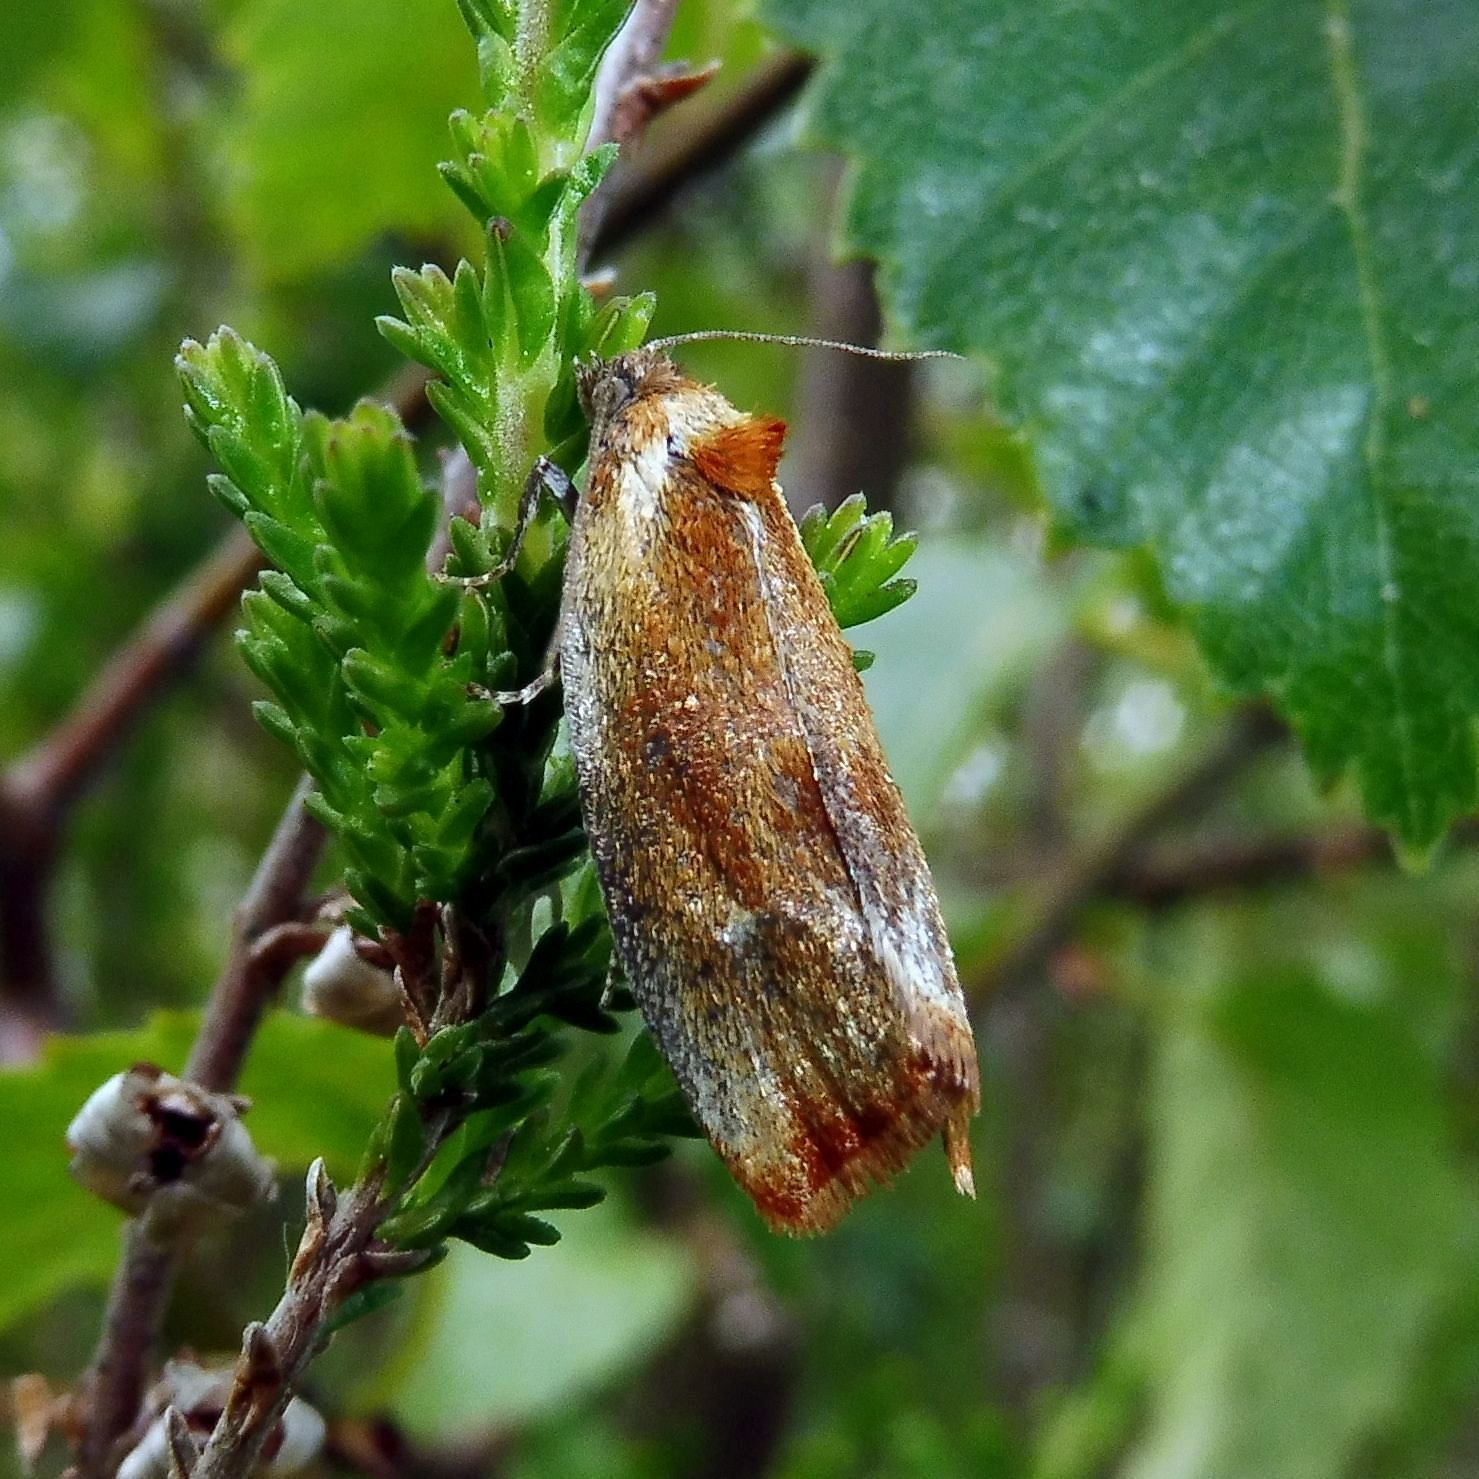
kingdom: Animalia
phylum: Arthropoda
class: Insecta
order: Lepidoptera
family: Tortricidae
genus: Eulia
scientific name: Eulia ministrana
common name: Brassy twist
